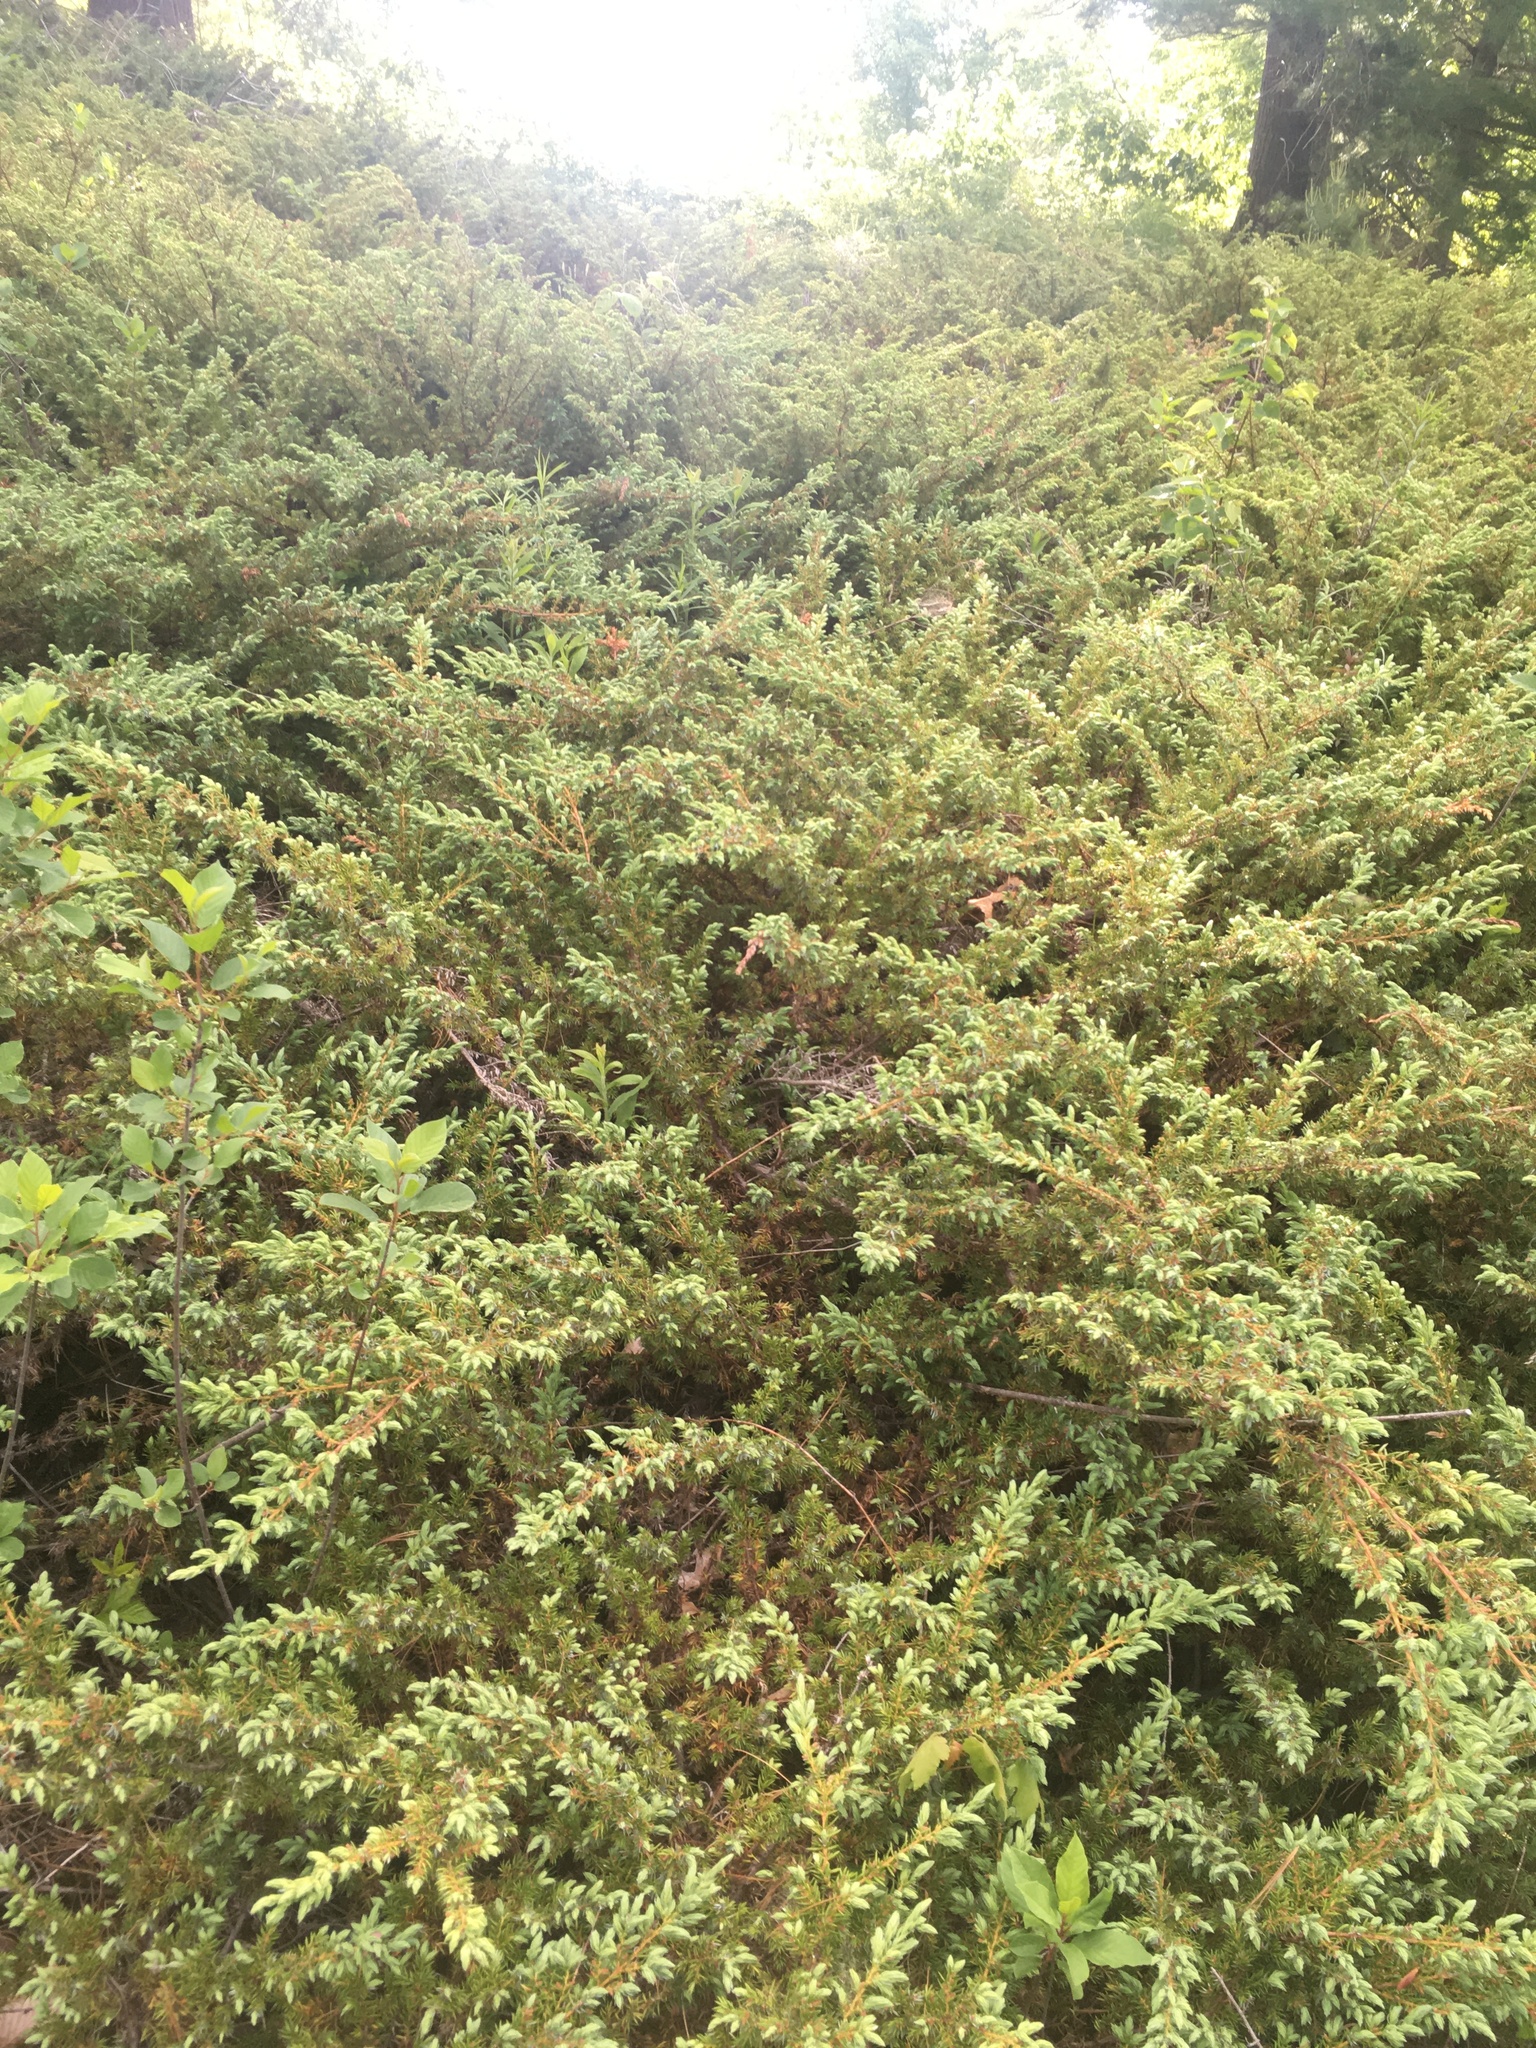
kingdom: Plantae
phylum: Tracheophyta
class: Pinopsida
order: Pinales
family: Cupressaceae
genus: Juniperus
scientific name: Juniperus communis
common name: Common juniper
